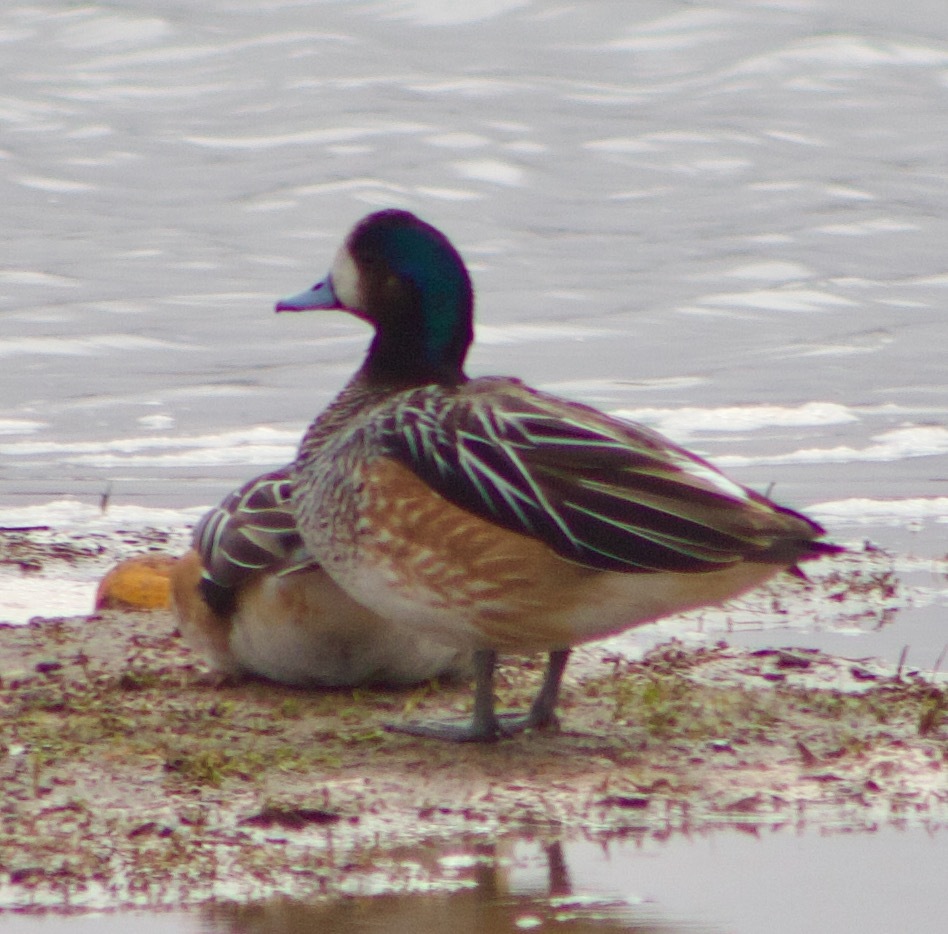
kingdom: Animalia
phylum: Chordata
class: Aves
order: Anseriformes
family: Anatidae
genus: Mareca
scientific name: Mareca sibilatrix
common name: Chiloe wigeon
